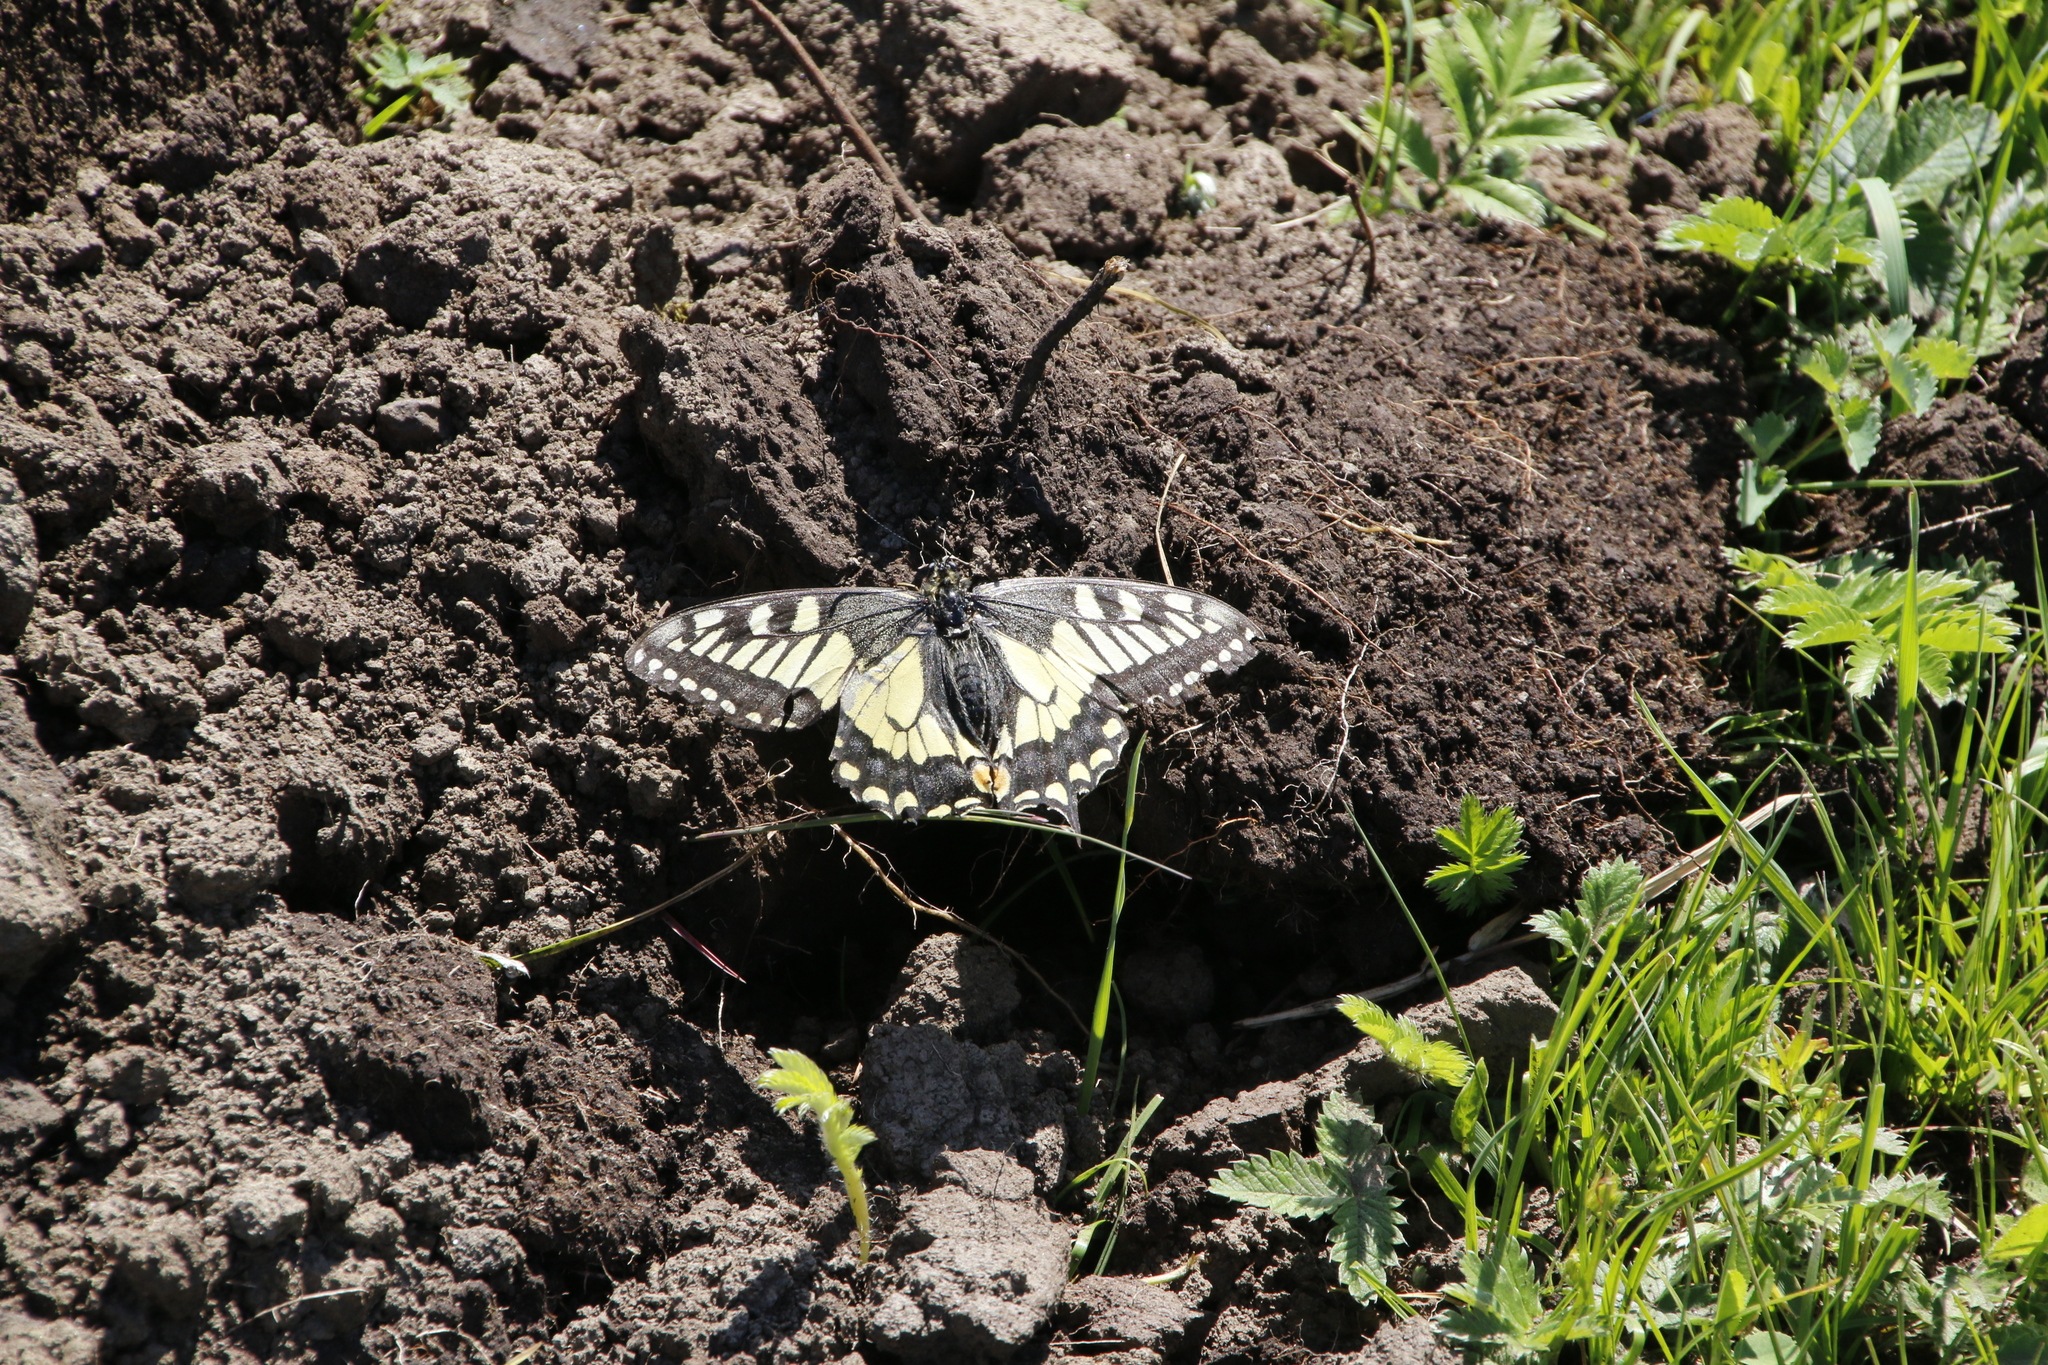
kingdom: Animalia
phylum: Arthropoda
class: Insecta
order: Lepidoptera
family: Papilionidae
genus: Papilio
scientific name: Papilio machaon
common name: Swallowtail
